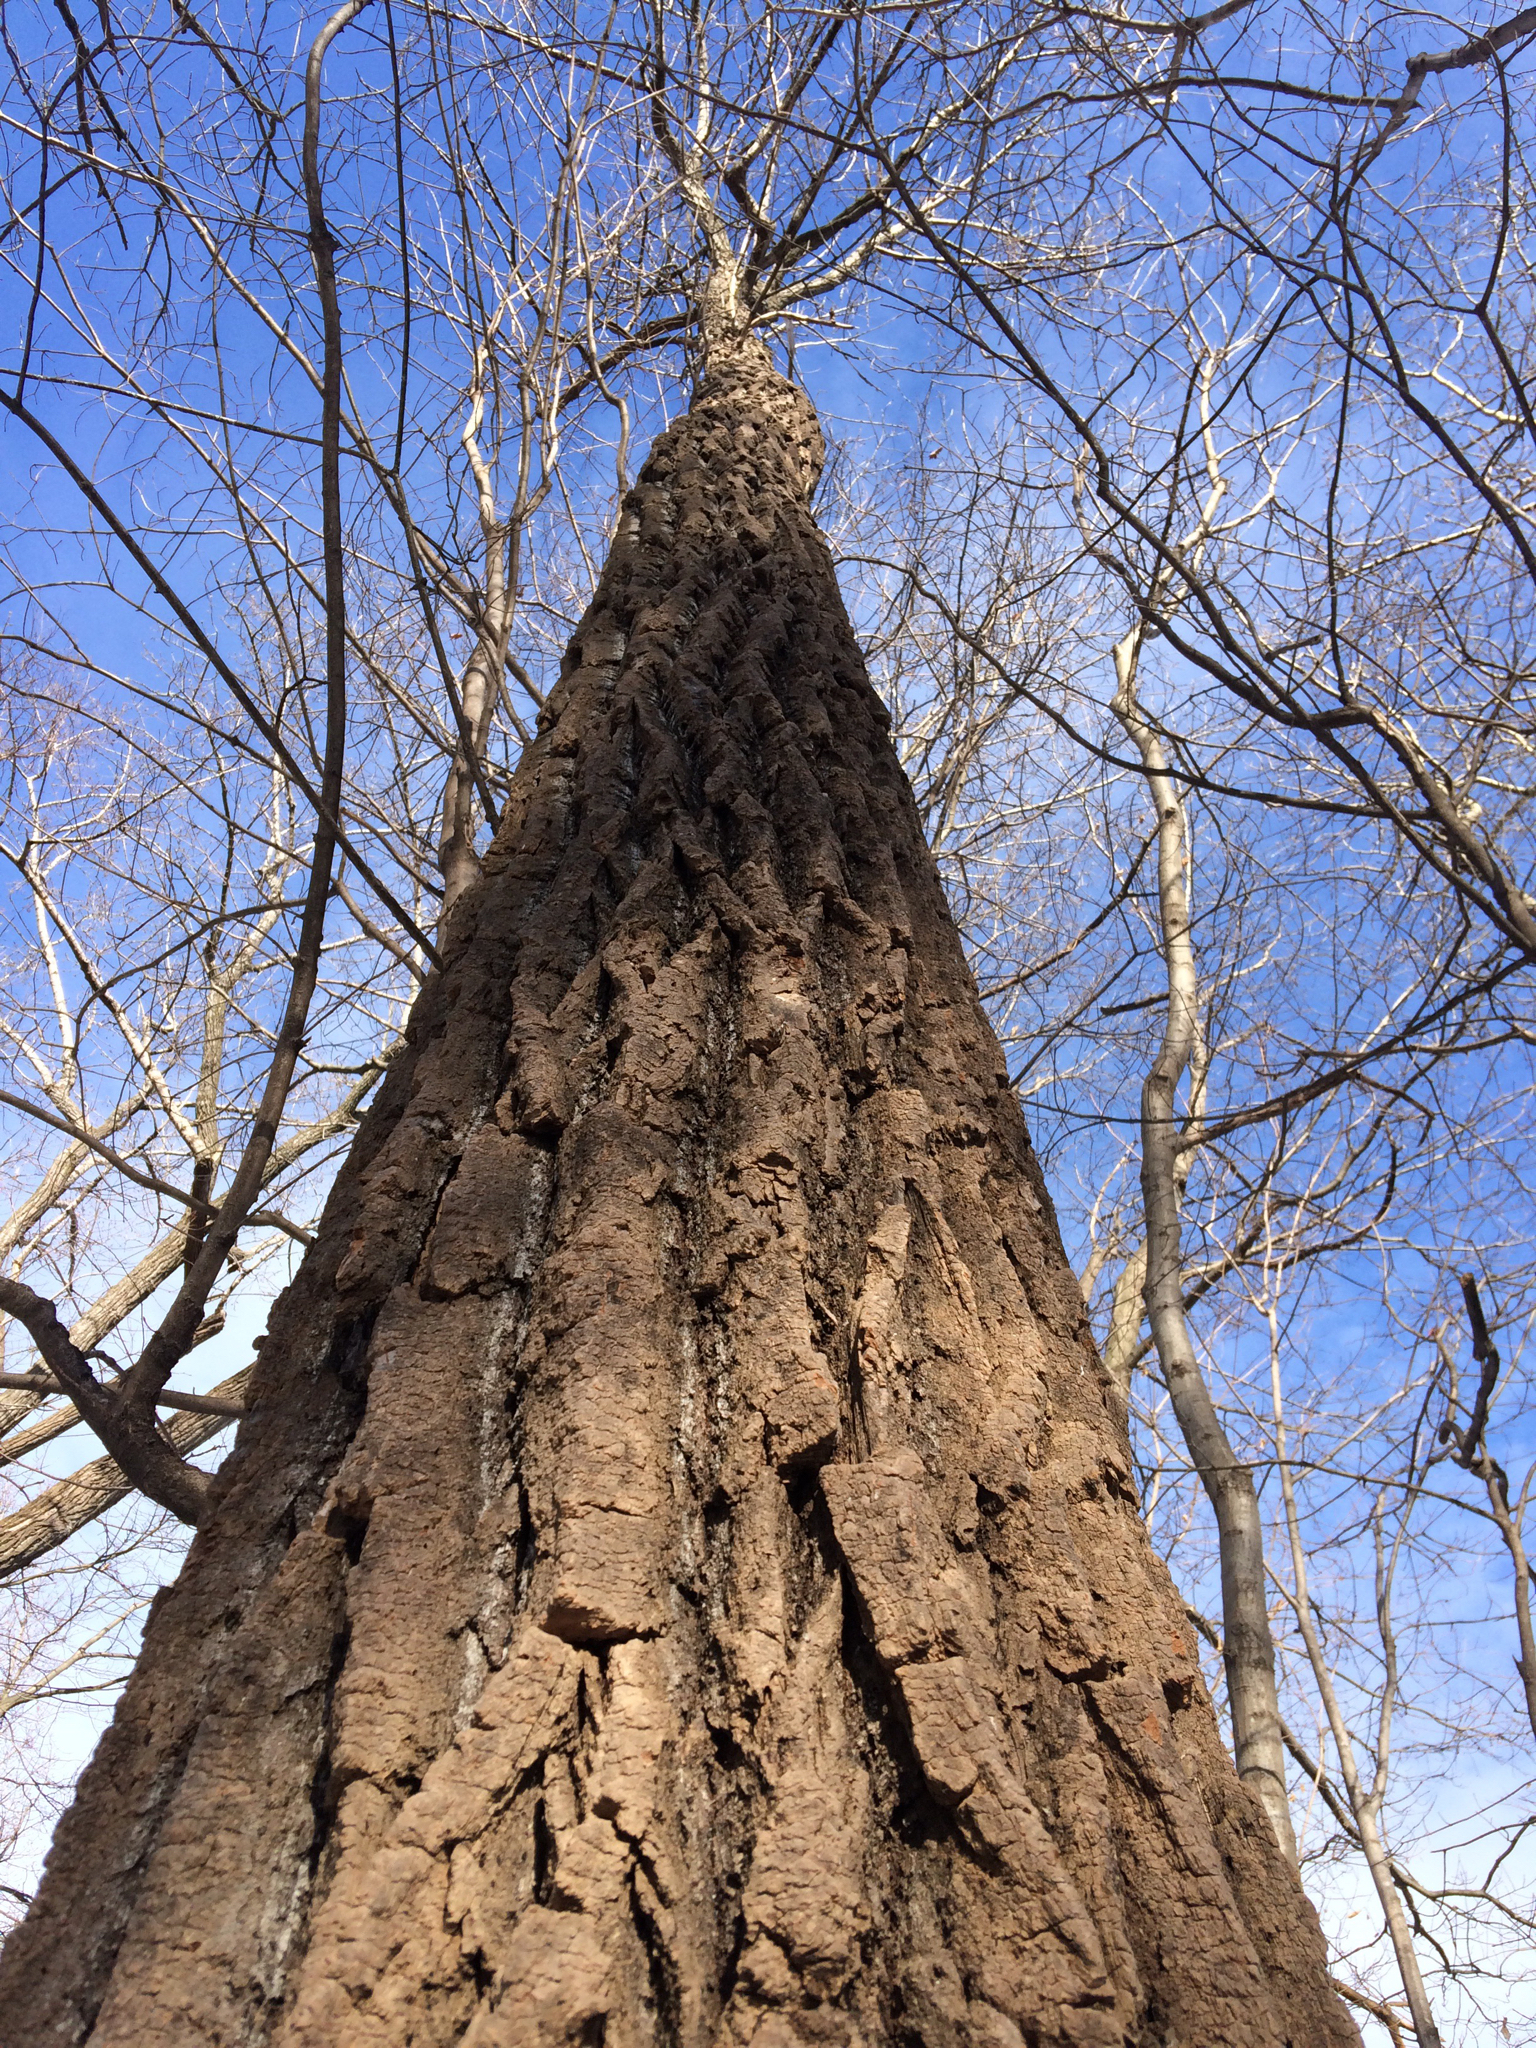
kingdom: Plantae
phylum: Tracheophyta
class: Magnoliopsida
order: Fagales
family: Fagaceae
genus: Quercus
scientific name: Quercus montana
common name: Chestnut oak
